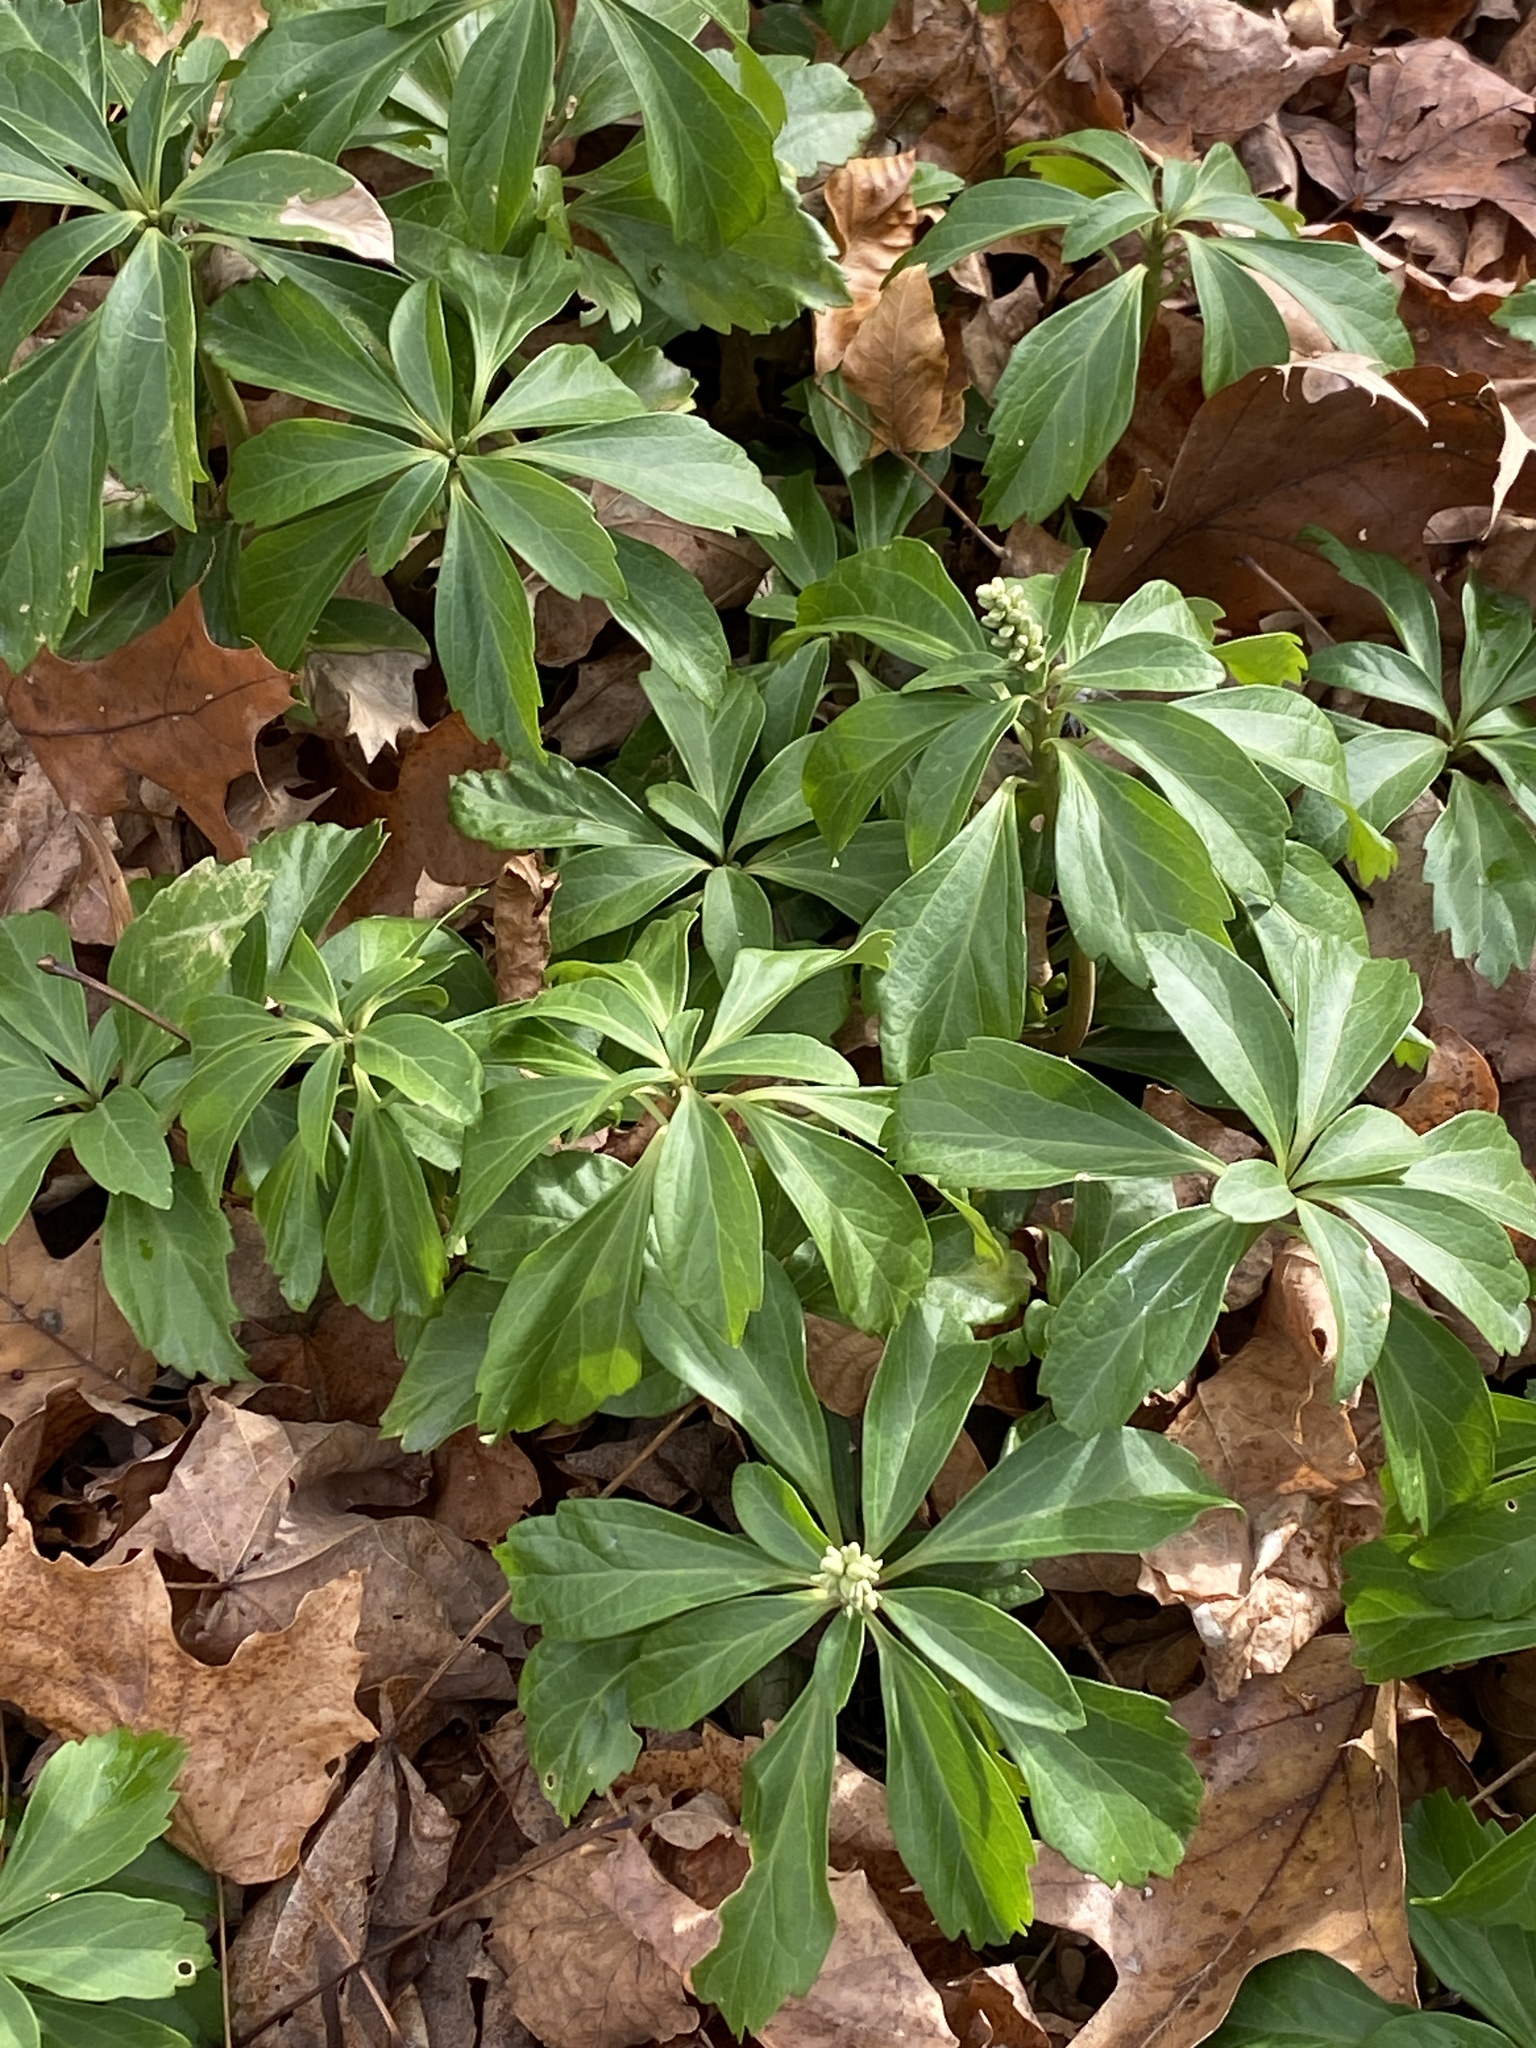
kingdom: Plantae
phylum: Tracheophyta
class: Magnoliopsida
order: Buxales
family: Buxaceae
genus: Pachysandra
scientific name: Pachysandra terminalis
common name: Japanese pachysandra
